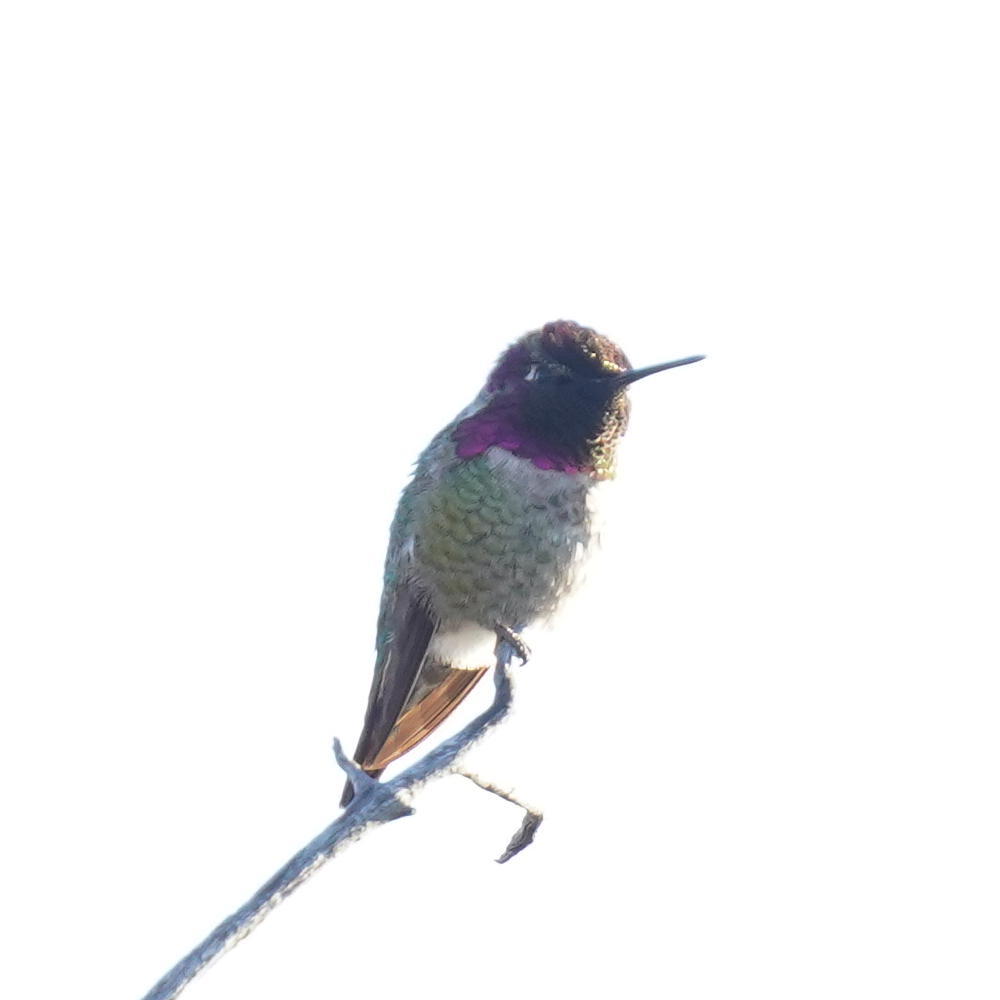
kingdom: Animalia
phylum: Chordata
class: Aves
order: Apodiformes
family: Trochilidae
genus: Calypte
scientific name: Calypte anna
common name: Anna's hummingbird
